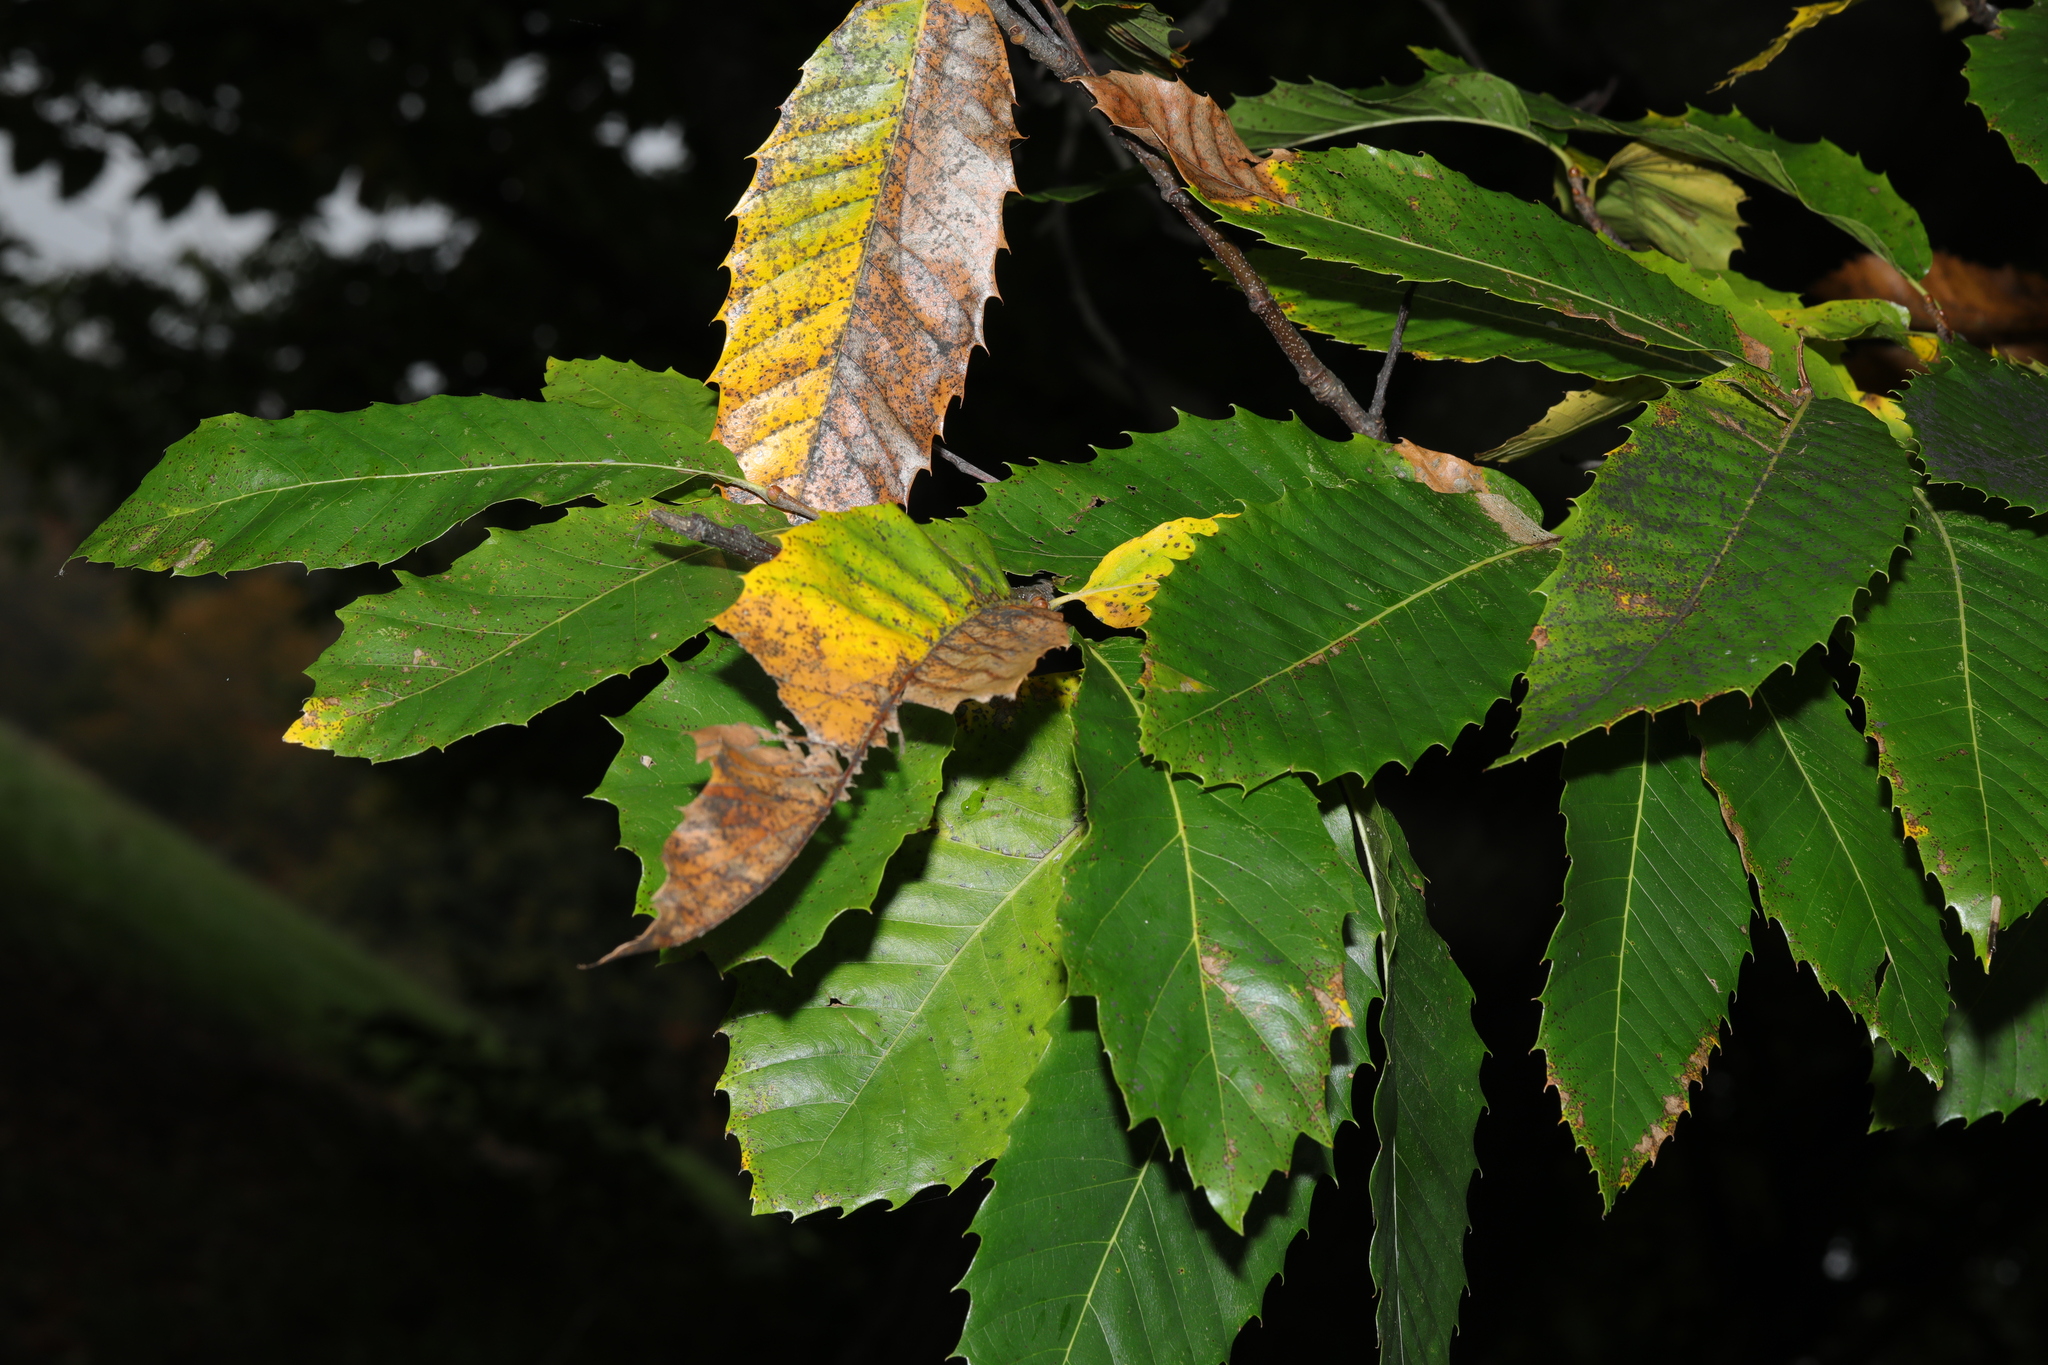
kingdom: Plantae
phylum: Tracheophyta
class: Magnoliopsida
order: Fagales
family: Fagaceae
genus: Castanea
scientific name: Castanea sativa
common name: Sweet chestnut
